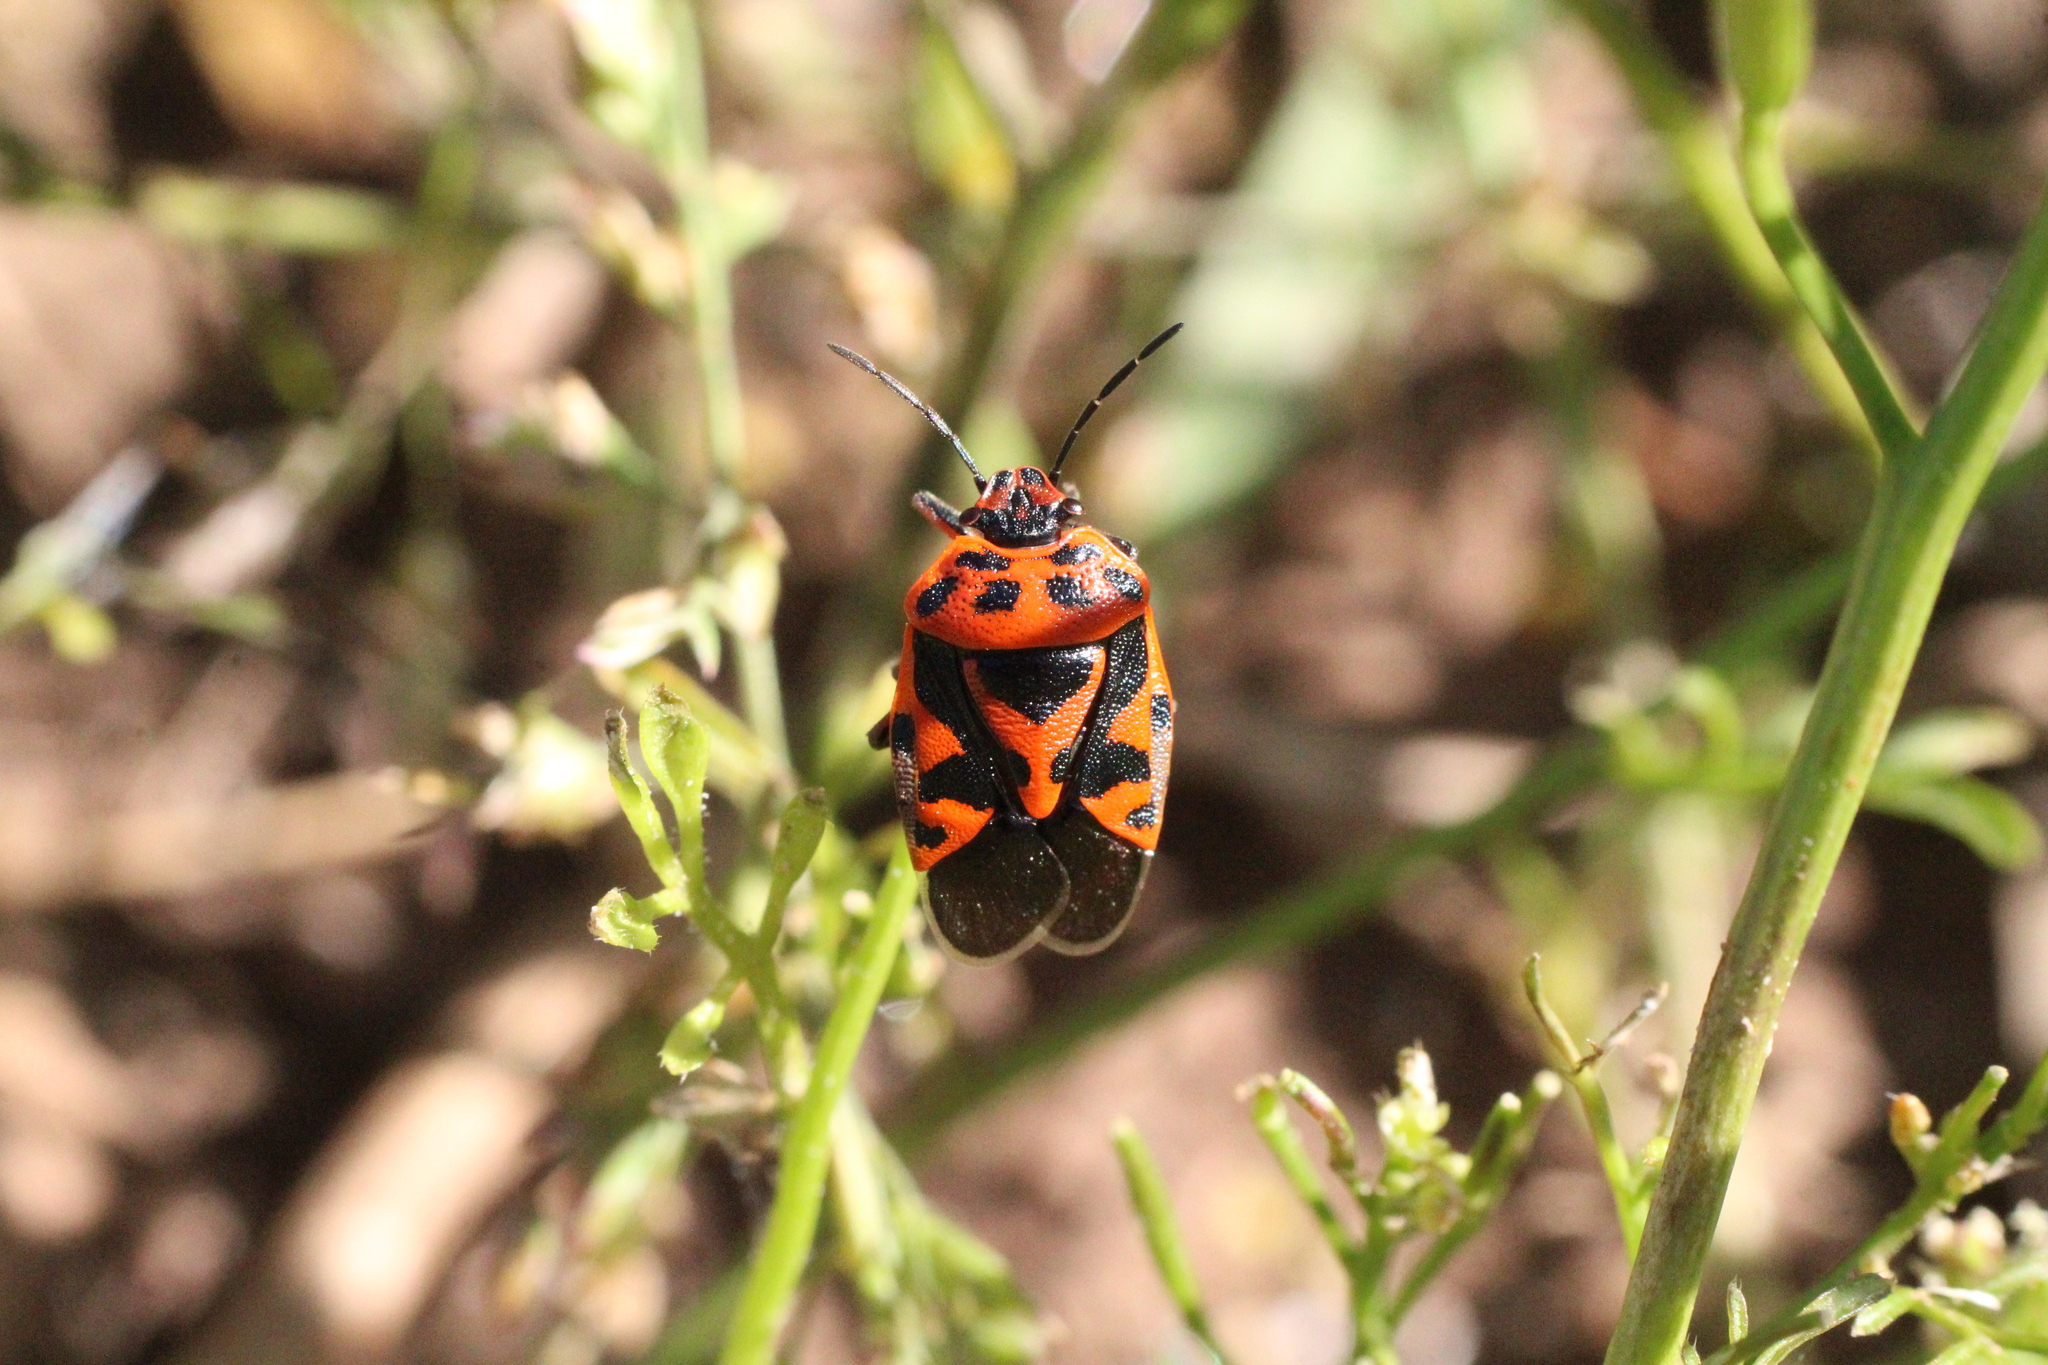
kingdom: Animalia
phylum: Arthropoda
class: Insecta
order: Hemiptera
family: Pentatomidae
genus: Eurydema
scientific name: Eurydema ornata
